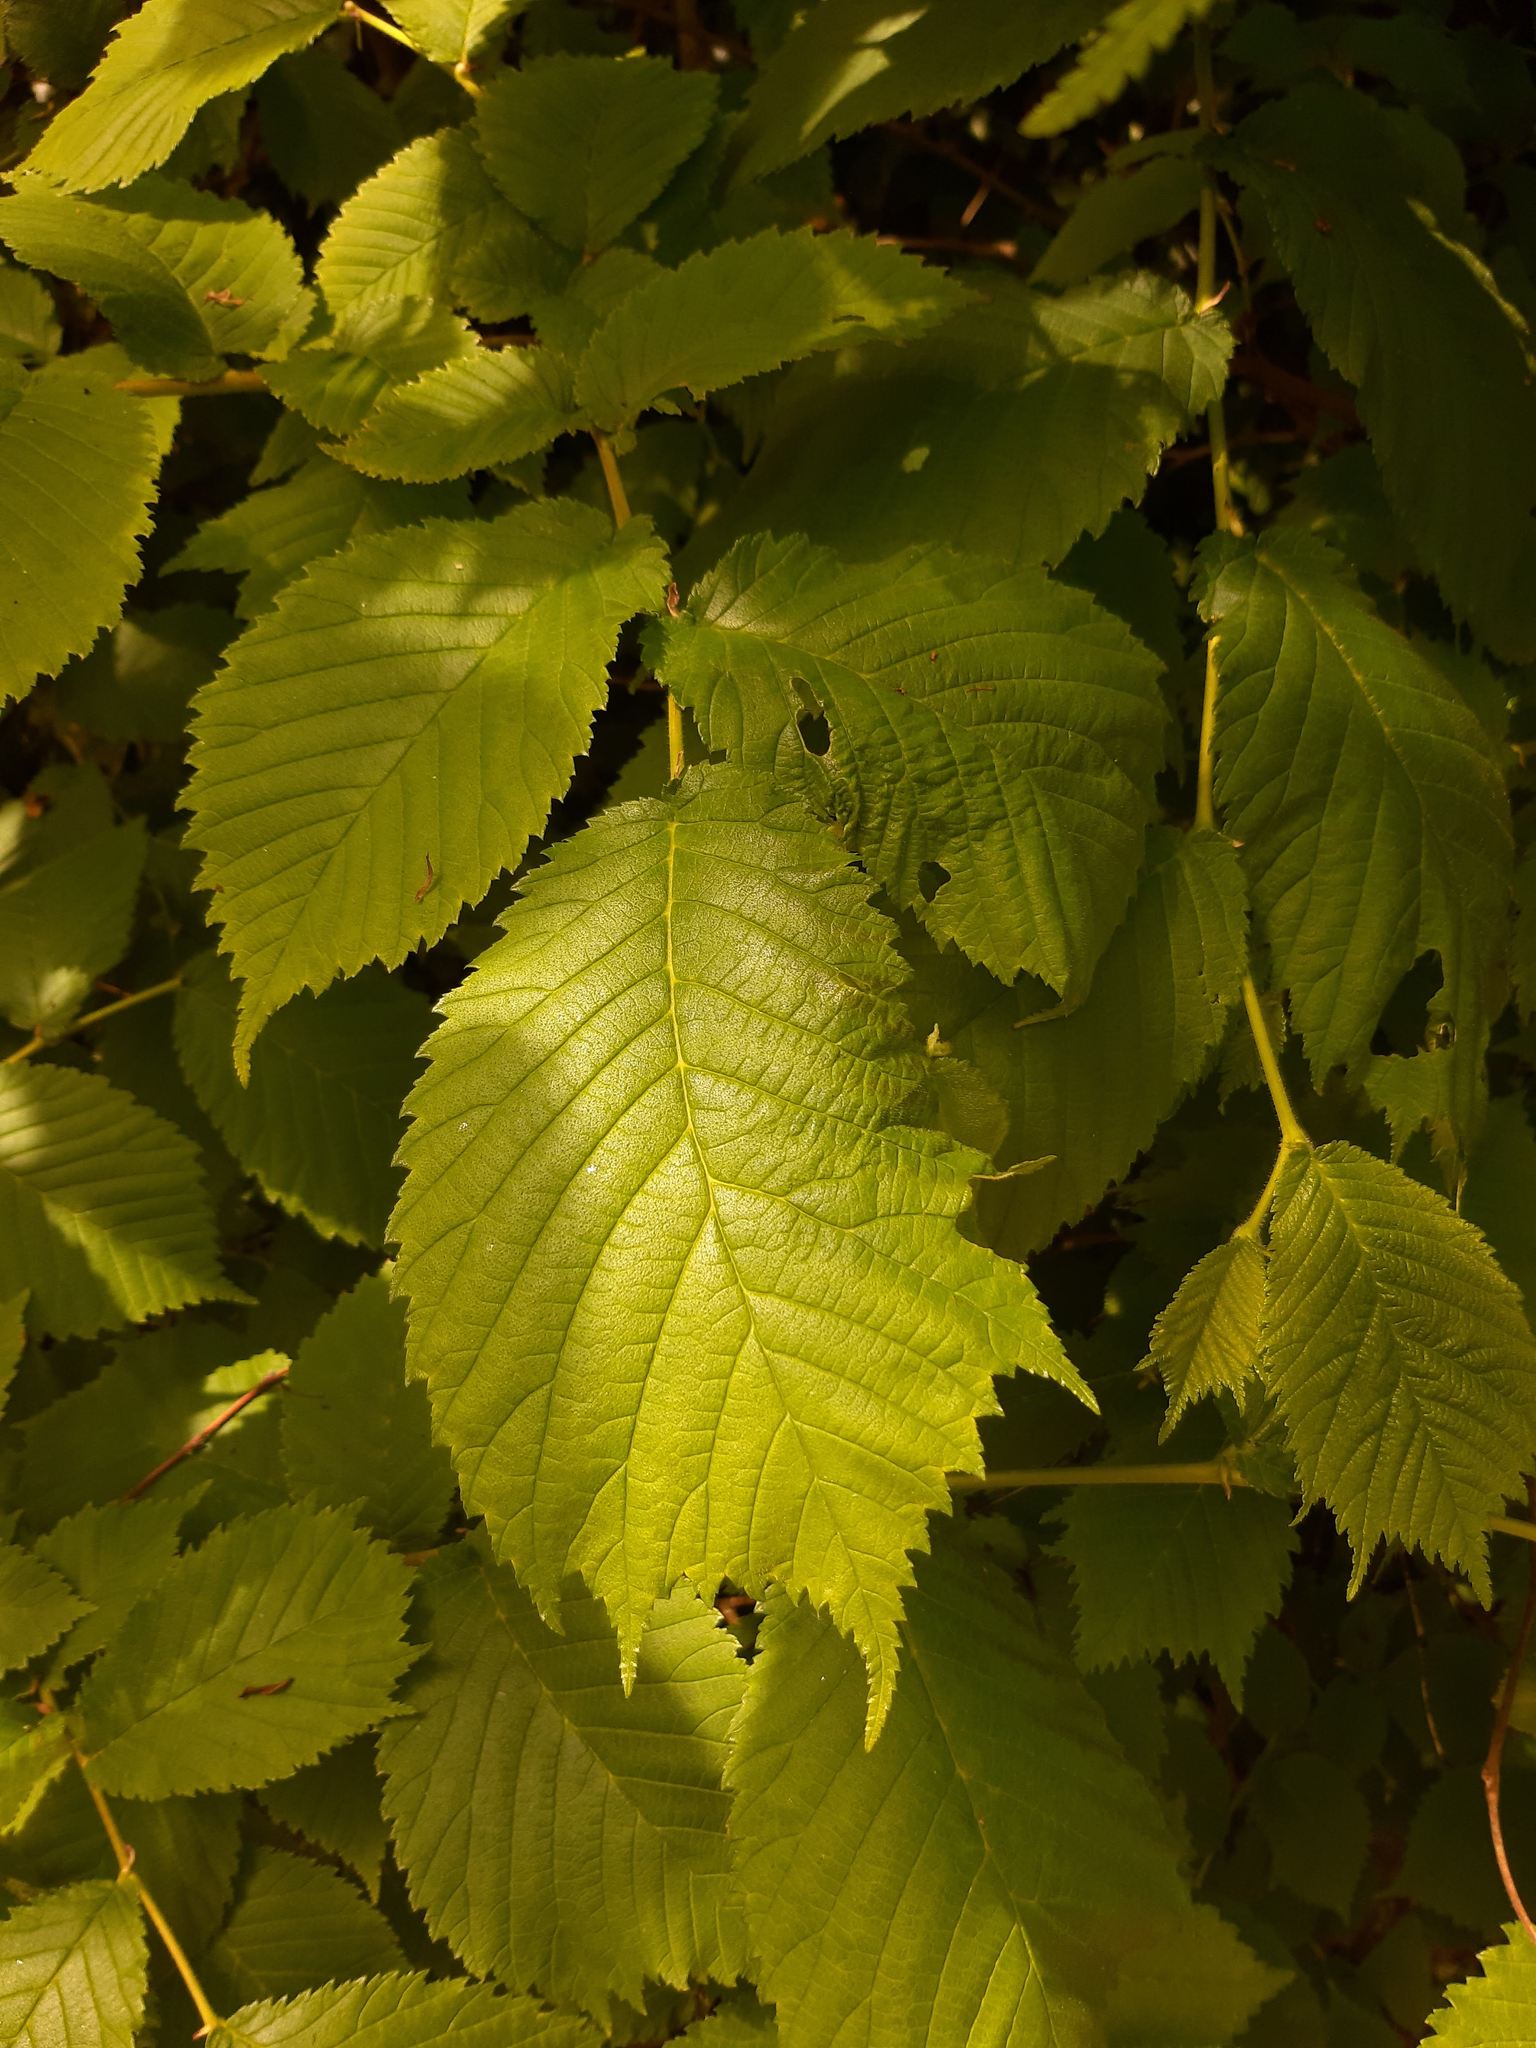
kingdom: Plantae
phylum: Tracheophyta
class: Magnoliopsida
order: Rosales
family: Ulmaceae
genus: Ulmus
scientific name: Ulmus glabra
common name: Wych elm
